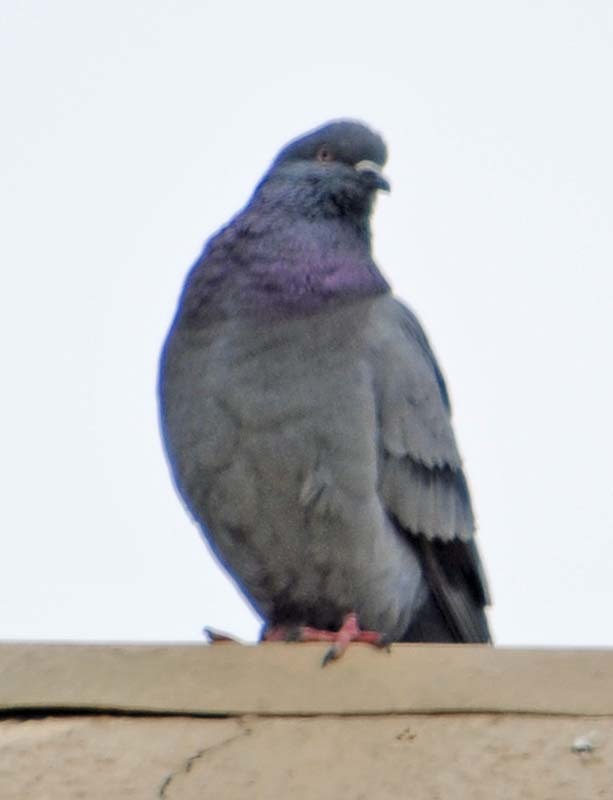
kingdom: Animalia
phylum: Chordata
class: Aves
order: Columbiformes
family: Columbidae
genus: Columba
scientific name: Columba livia
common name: Rock pigeon
